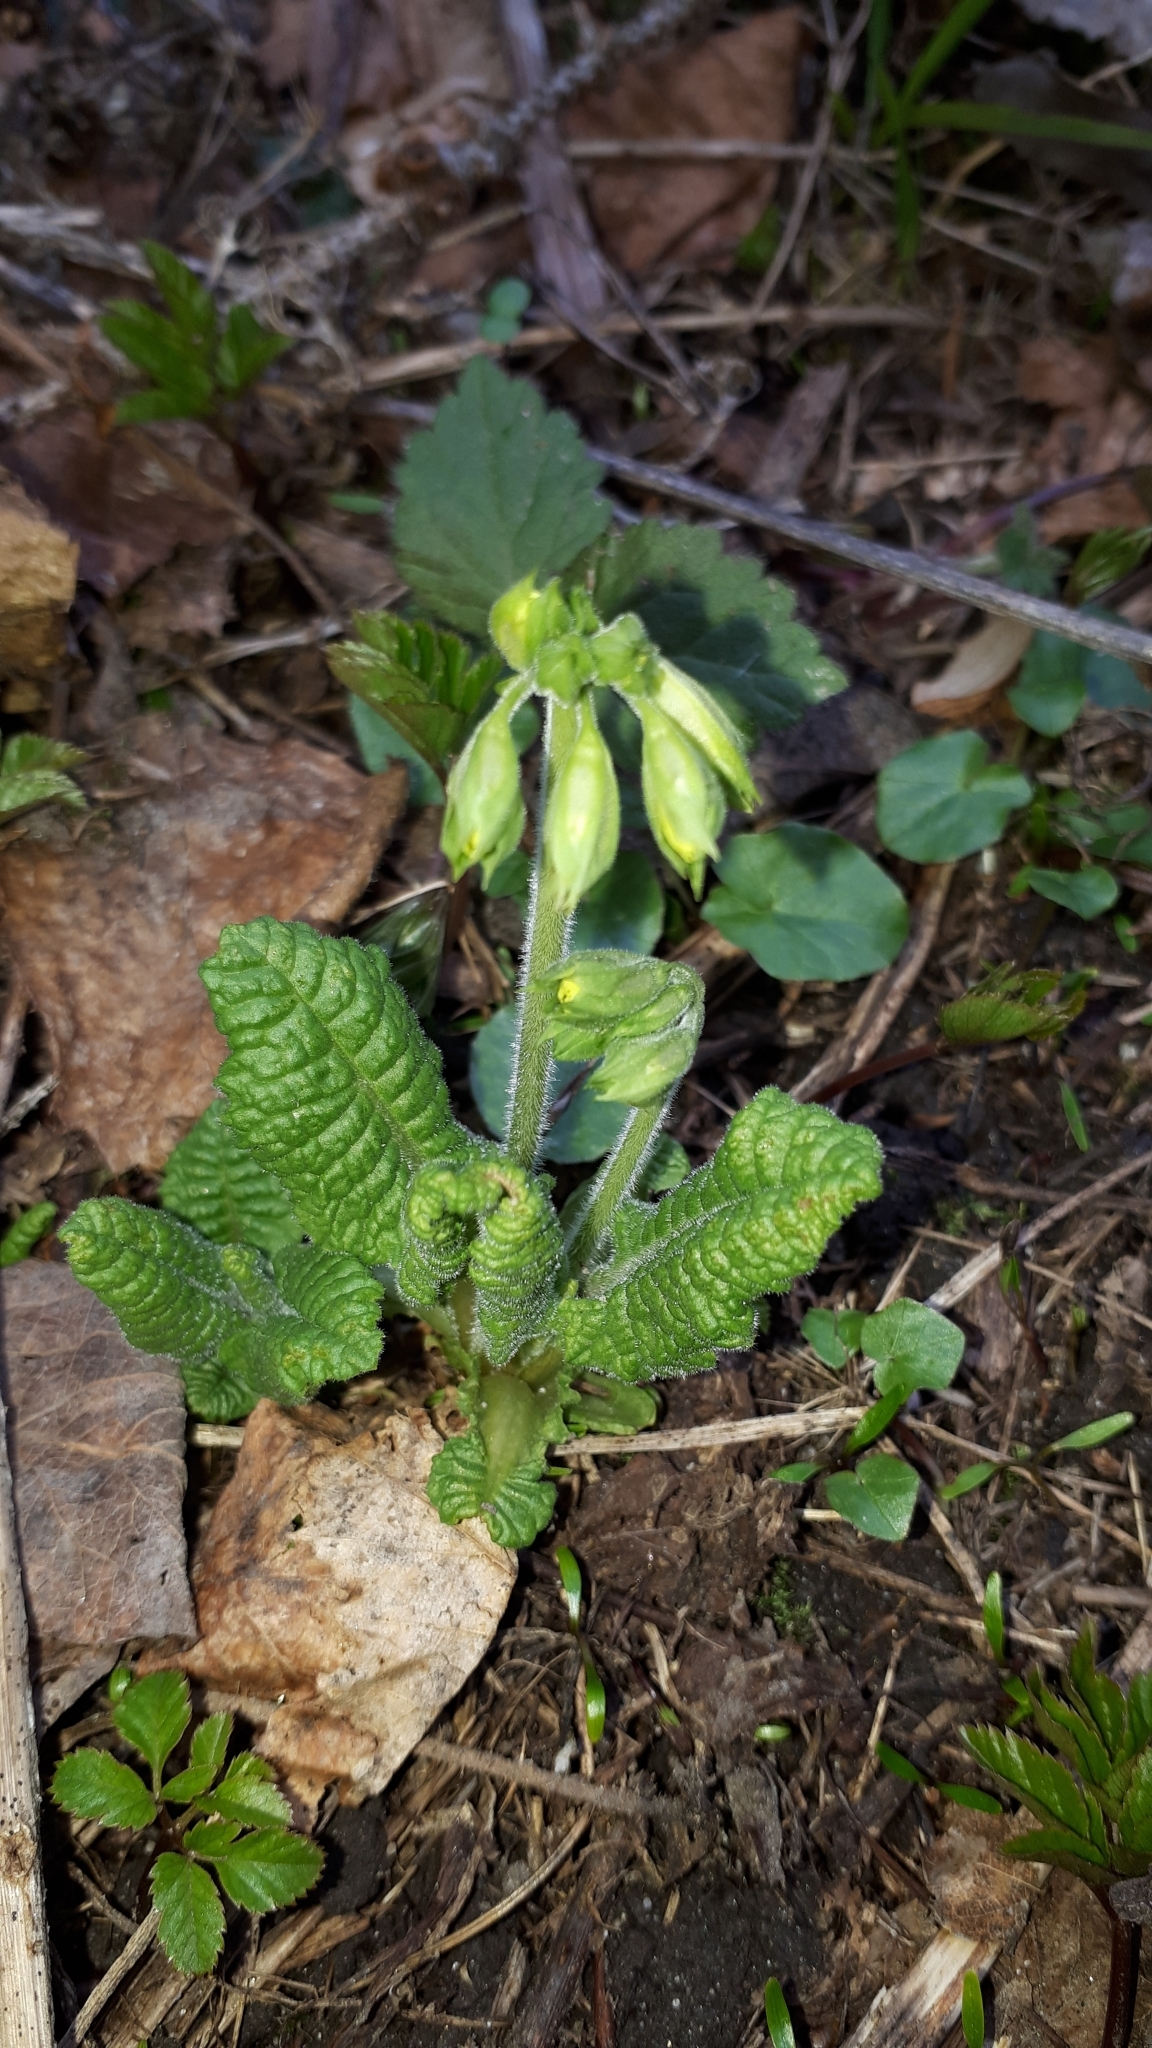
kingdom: Plantae
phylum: Tracheophyta
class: Magnoliopsida
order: Ericales
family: Primulaceae
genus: Primula
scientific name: Primula elatior
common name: Oxlip
